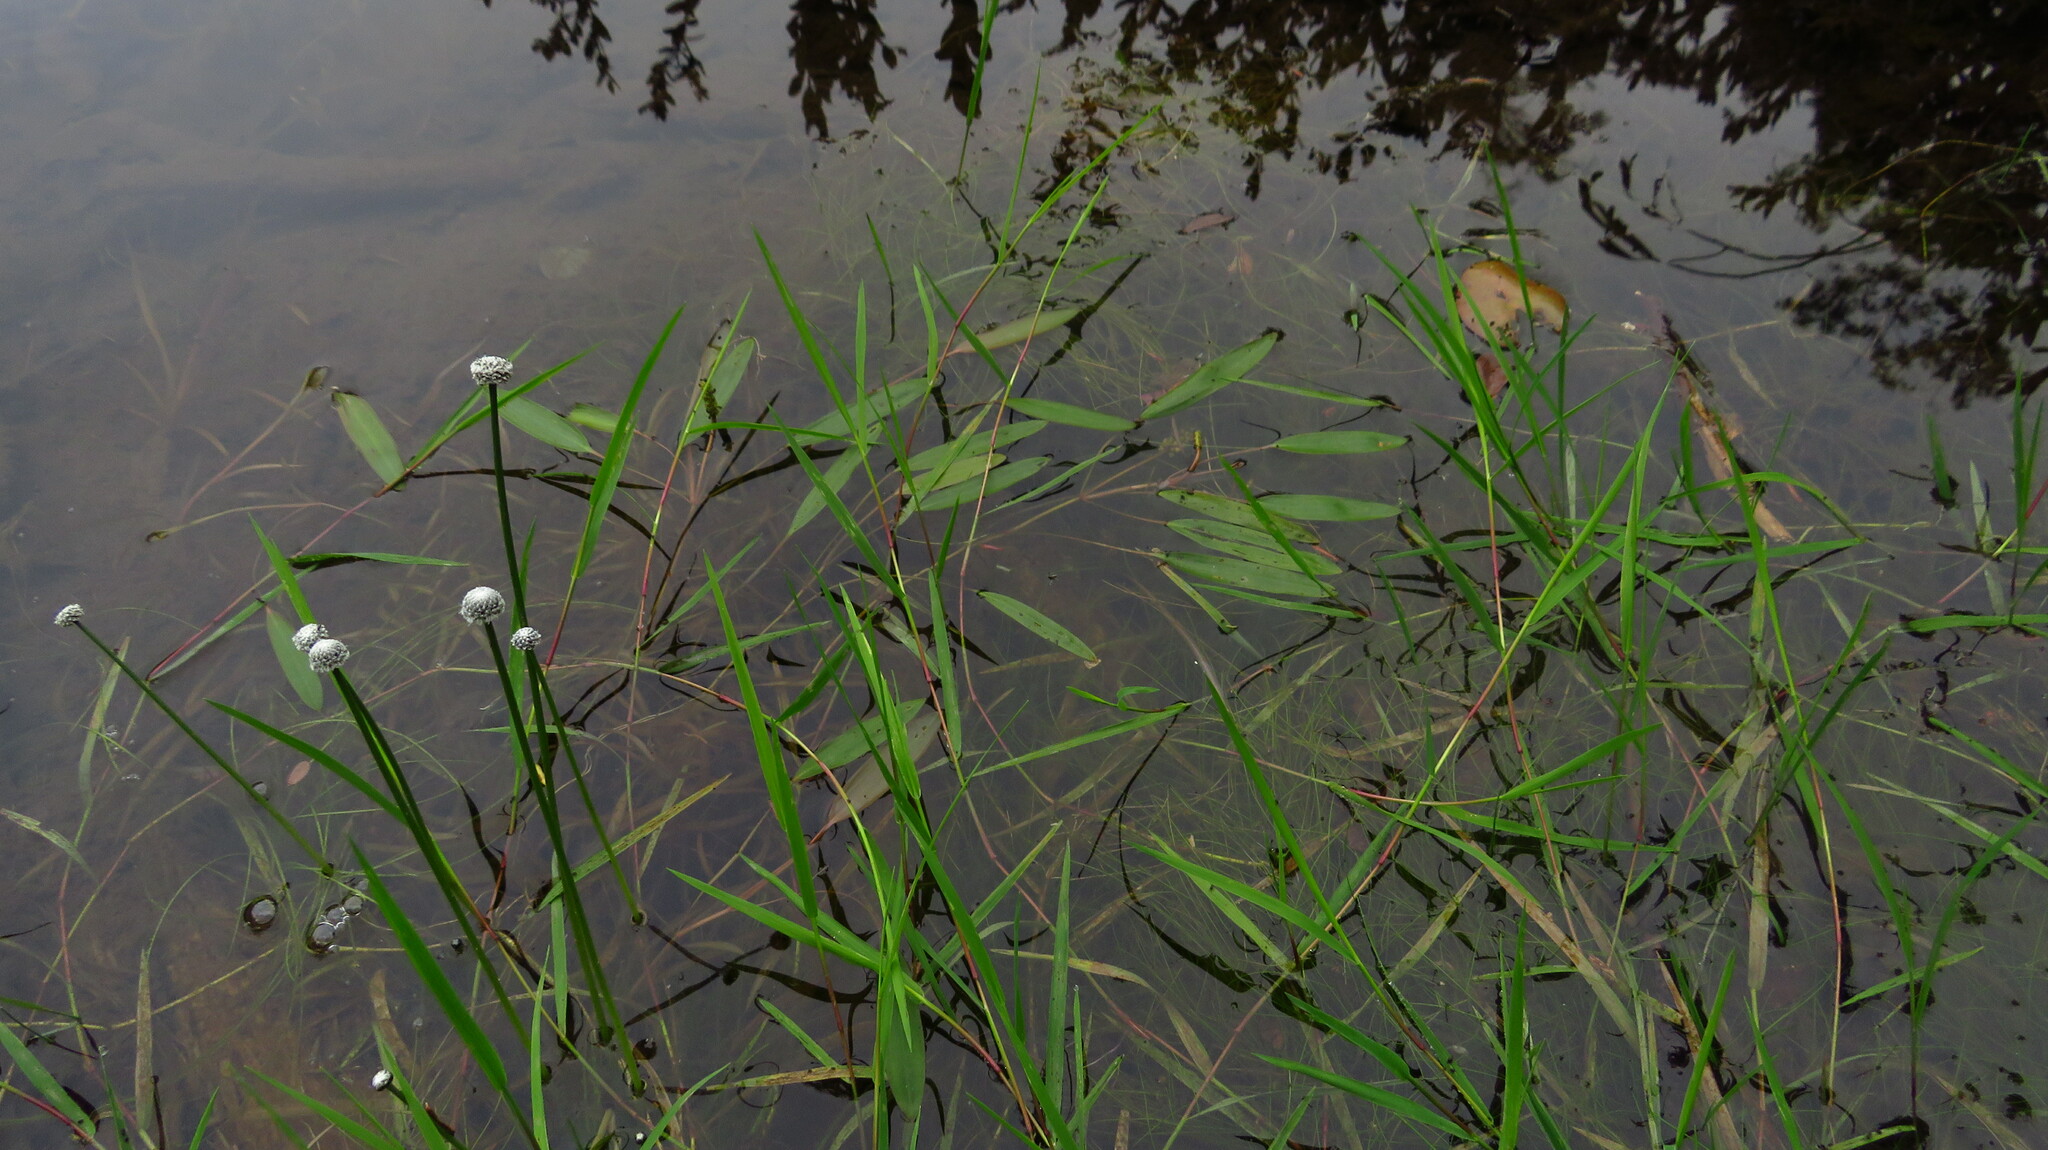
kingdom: Plantae
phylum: Tracheophyta
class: Liliopsida
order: Poales
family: Eriocaulaceae
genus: Eriocaulon
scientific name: Eriocaulon aquaticum
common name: Pipewort
